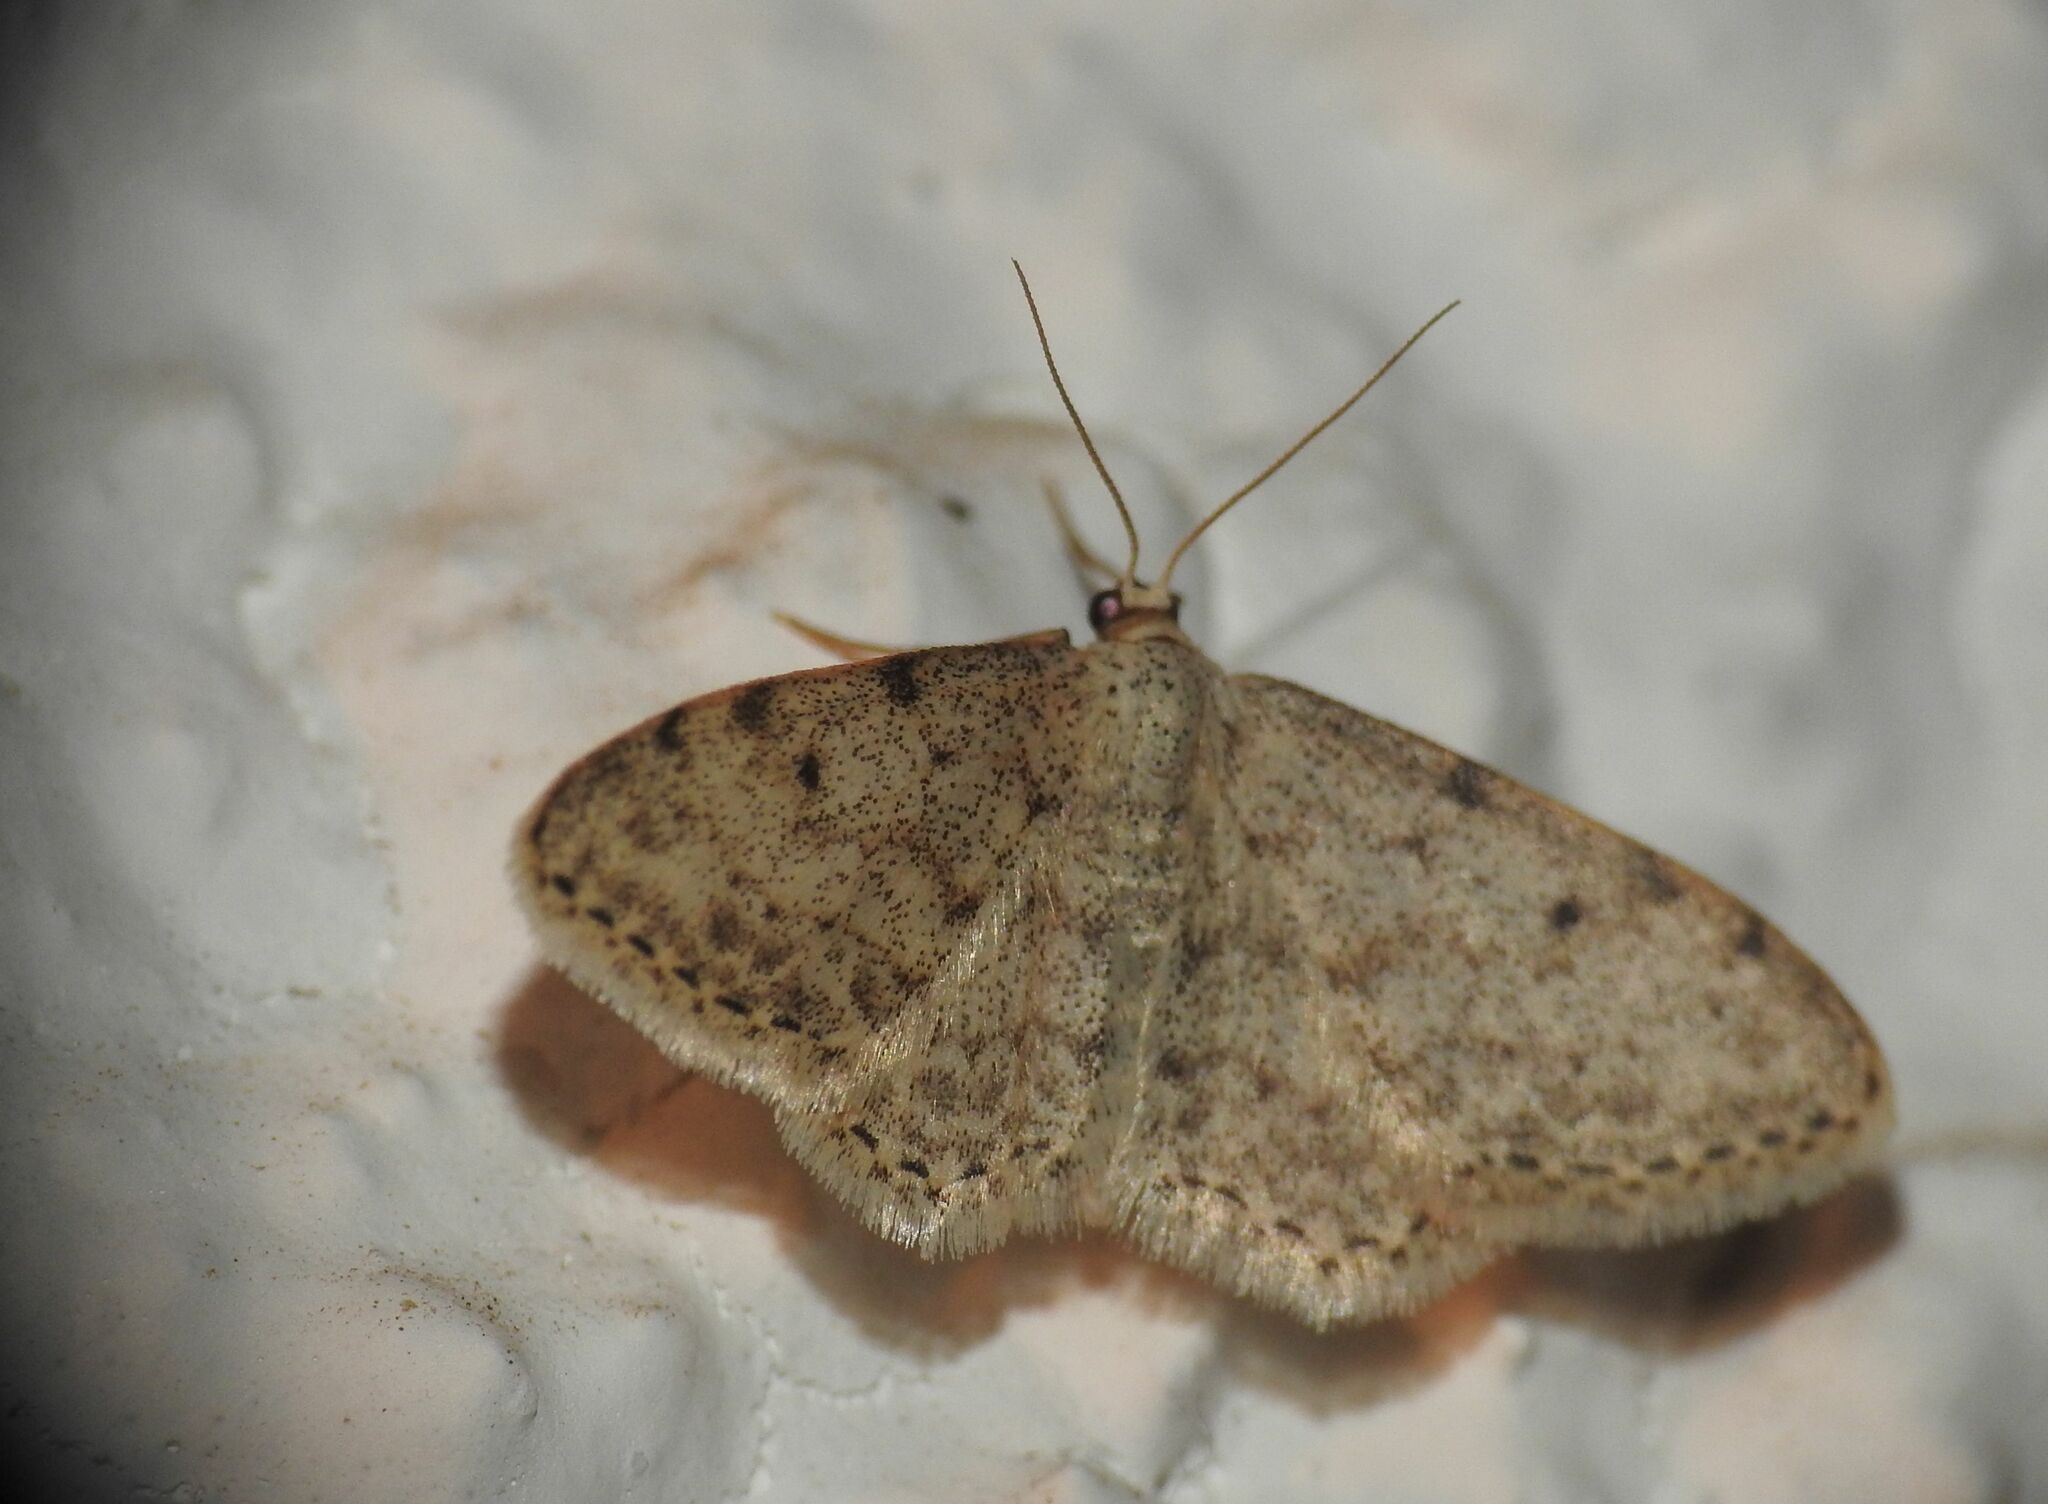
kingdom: Animalia
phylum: Arthropoda
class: Insecta
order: Lepidoptera
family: Geometridae
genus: Idaea
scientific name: Idaea camparia
